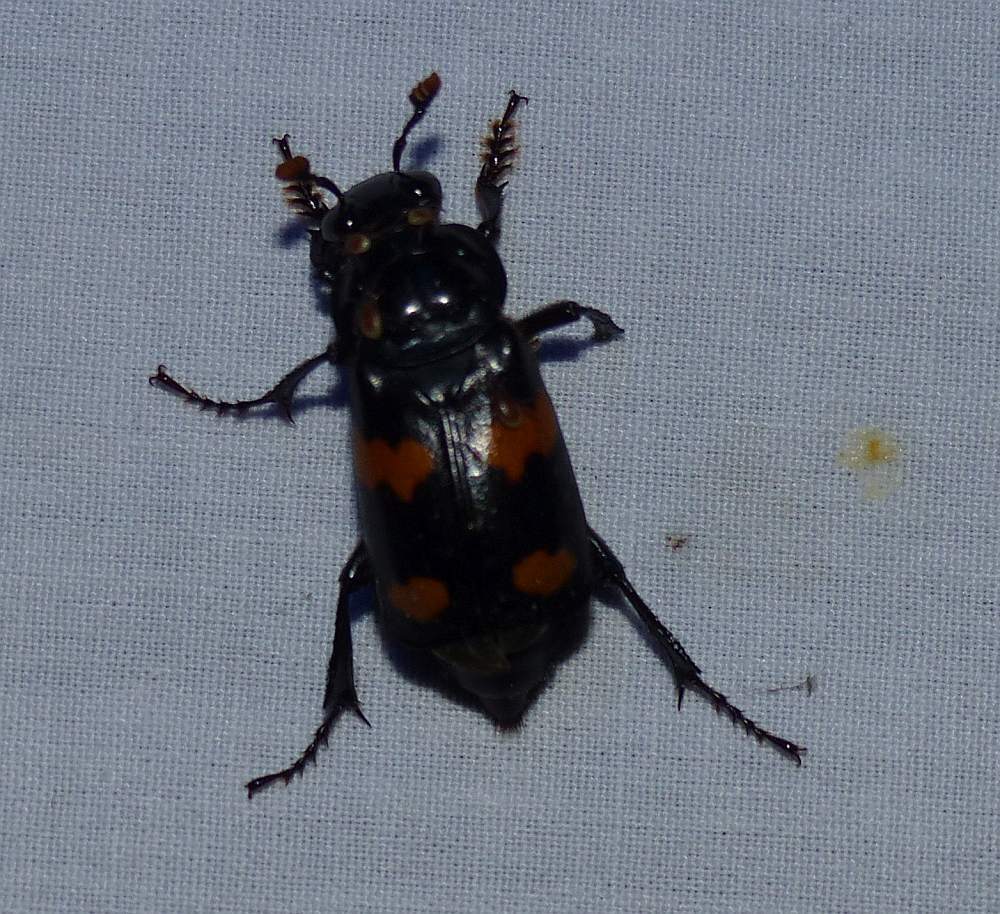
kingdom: Animalia
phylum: Arthropoda
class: Insecta
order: Coleoptera
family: Staphylinidae
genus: Nicrophorus
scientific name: Nicrophorus orbicollis
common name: Roundneck sexton beetle
